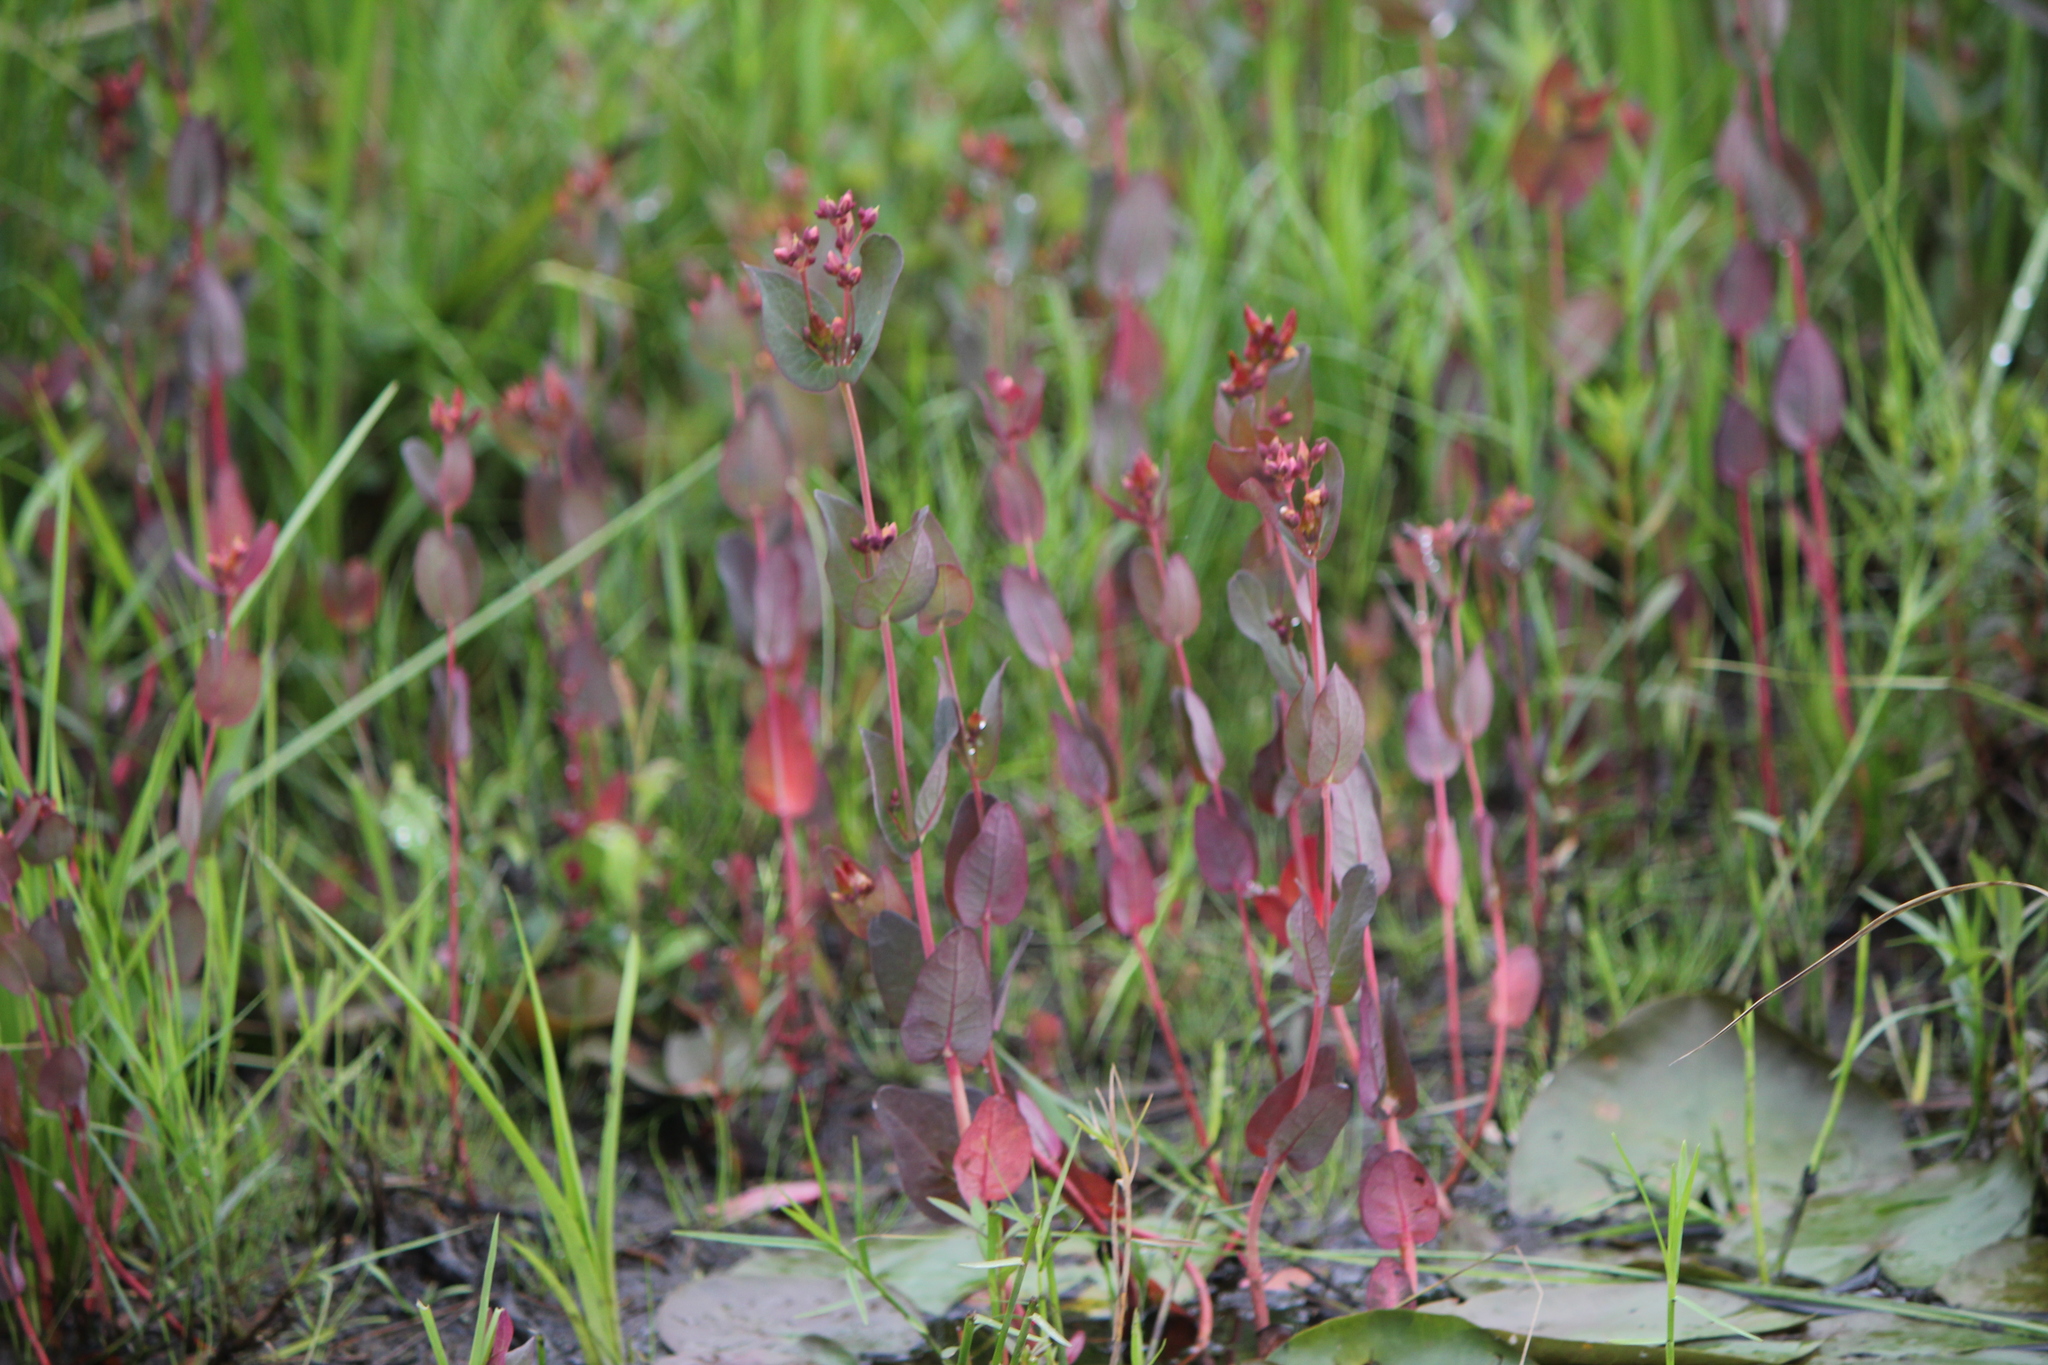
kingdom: Plantae
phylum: Tracheophyta
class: Magnoliopsida
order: Malpighiales
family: Hypericaceae
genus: Triadenum
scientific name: Triadenum fraseri
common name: Fraser's marsh st. johnswort
